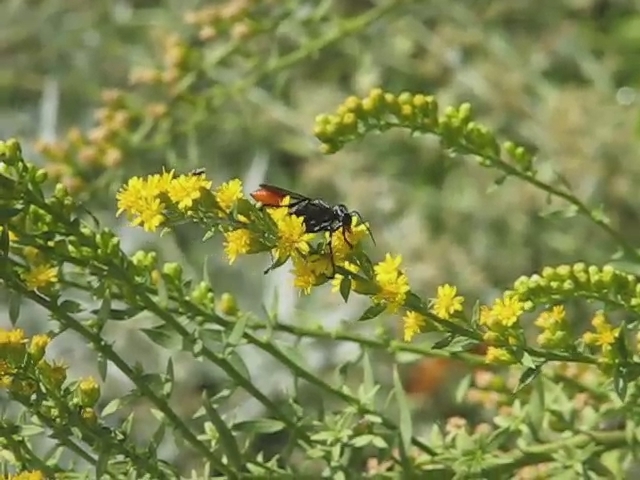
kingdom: Animalia
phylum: Arthropoda
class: Insecta
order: Hymenoptera
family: Sphecidae
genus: Prionyx
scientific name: Prionyx parkeri
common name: Parker's thread-waisted wasp
